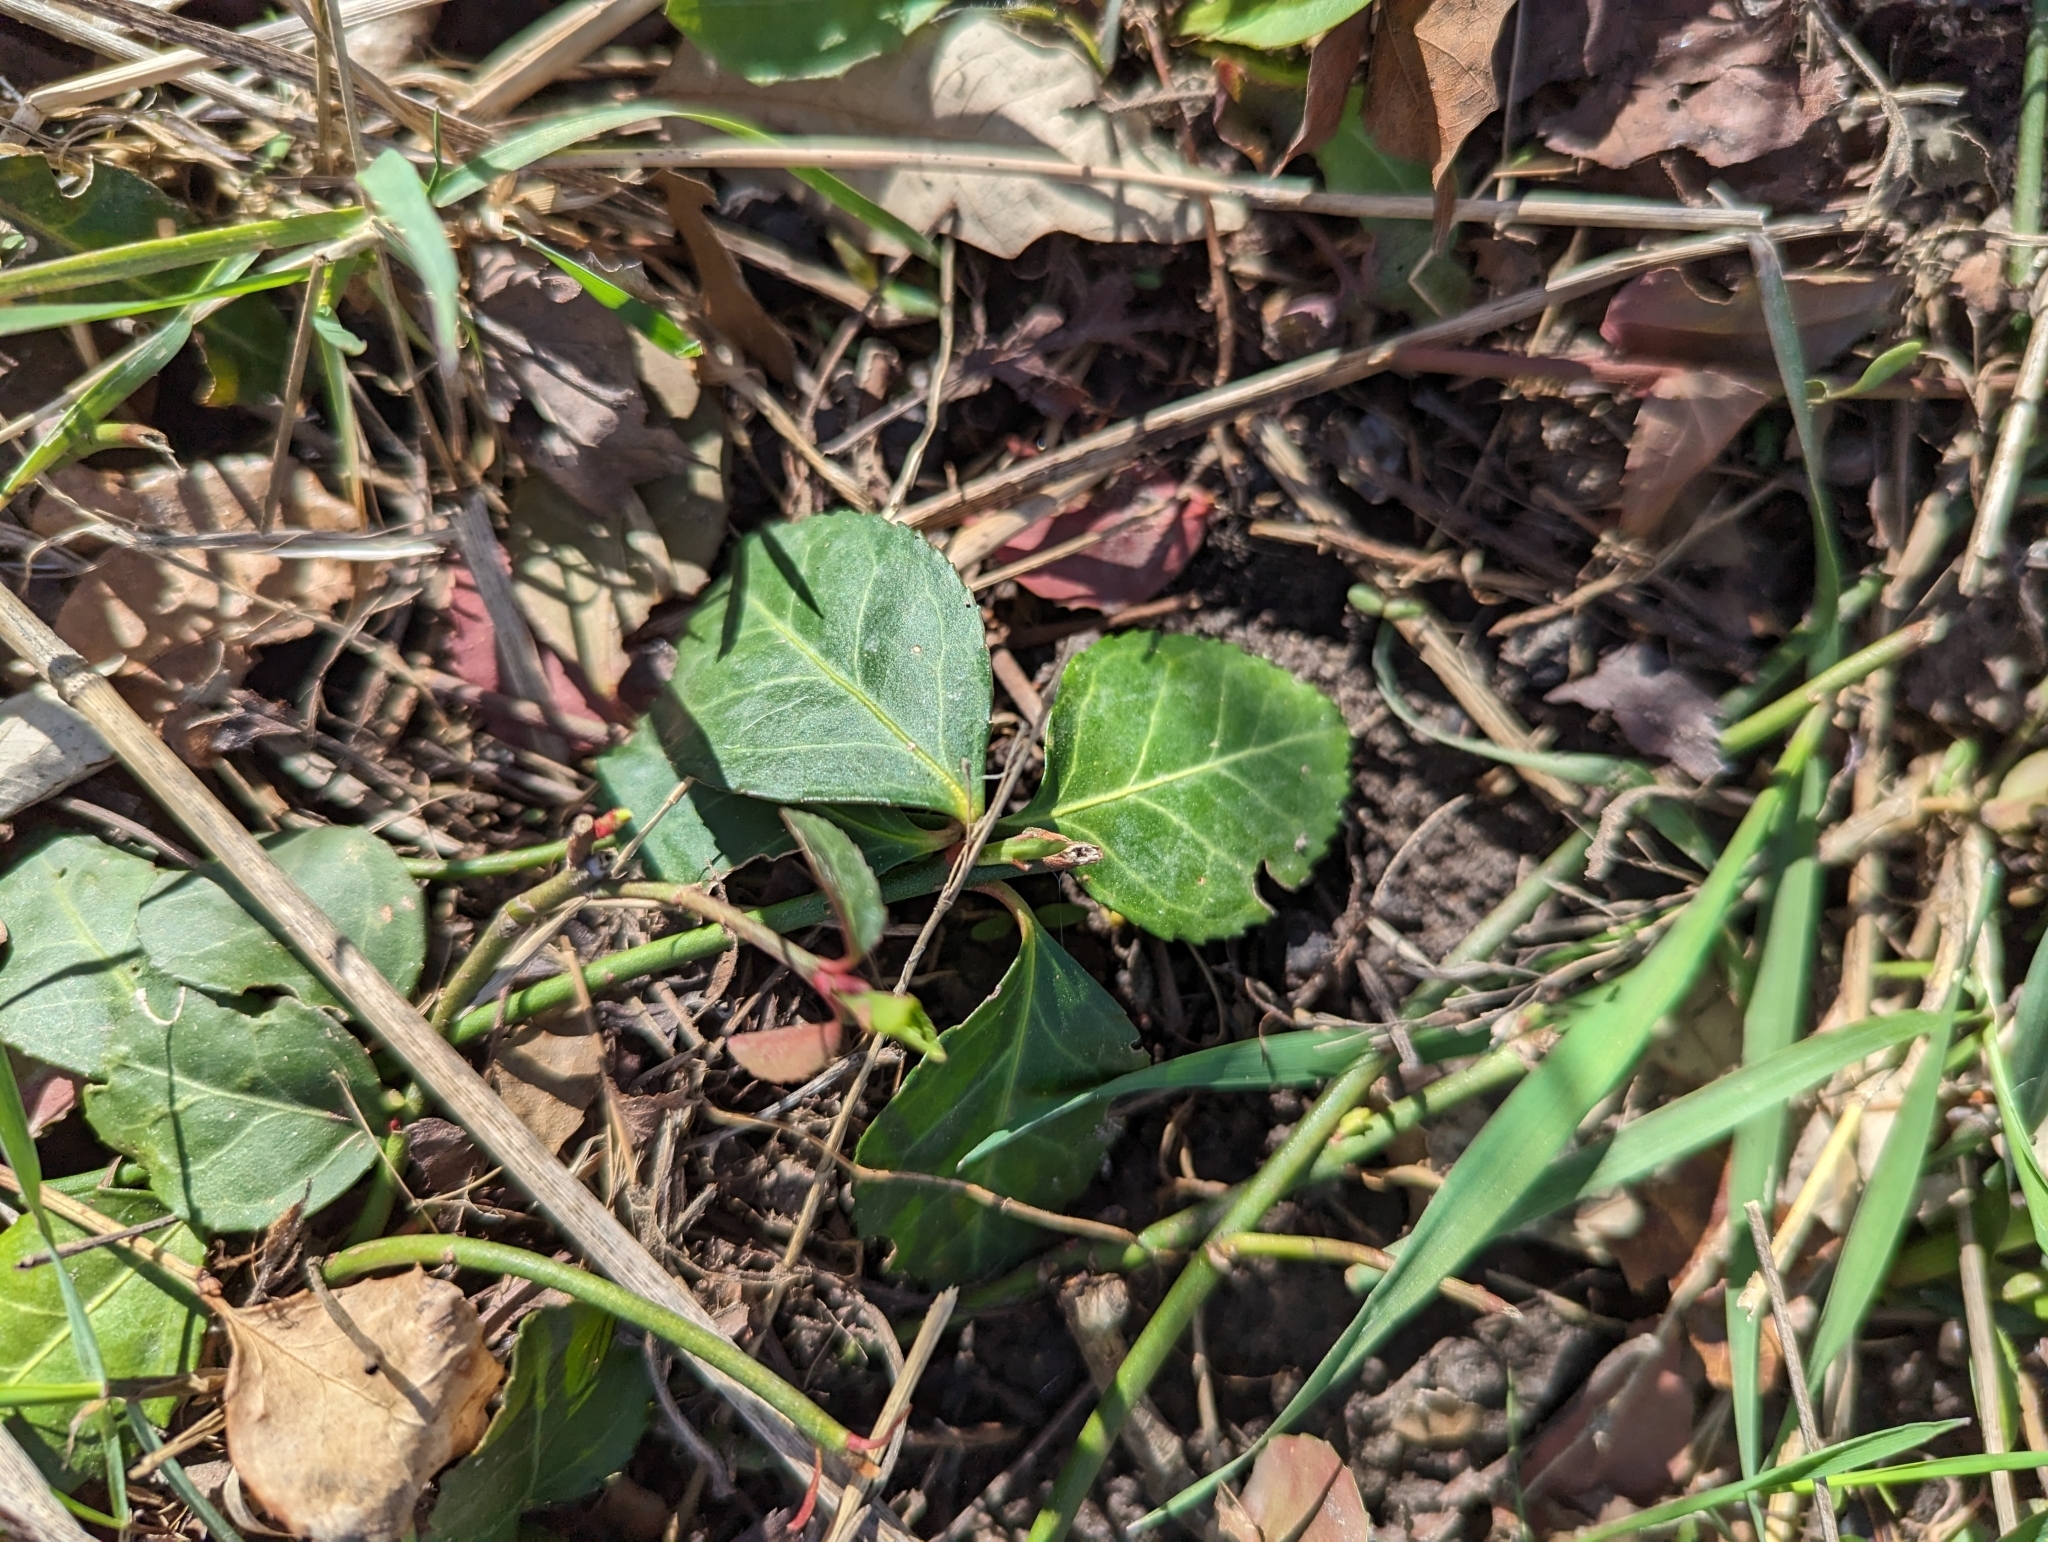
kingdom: Plantae
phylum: Tracheophyta
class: Magnoliopsida
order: Celastrales
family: Celastraceae
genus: Euonymus
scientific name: Euonymus fortunei
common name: Climbing euonymus
